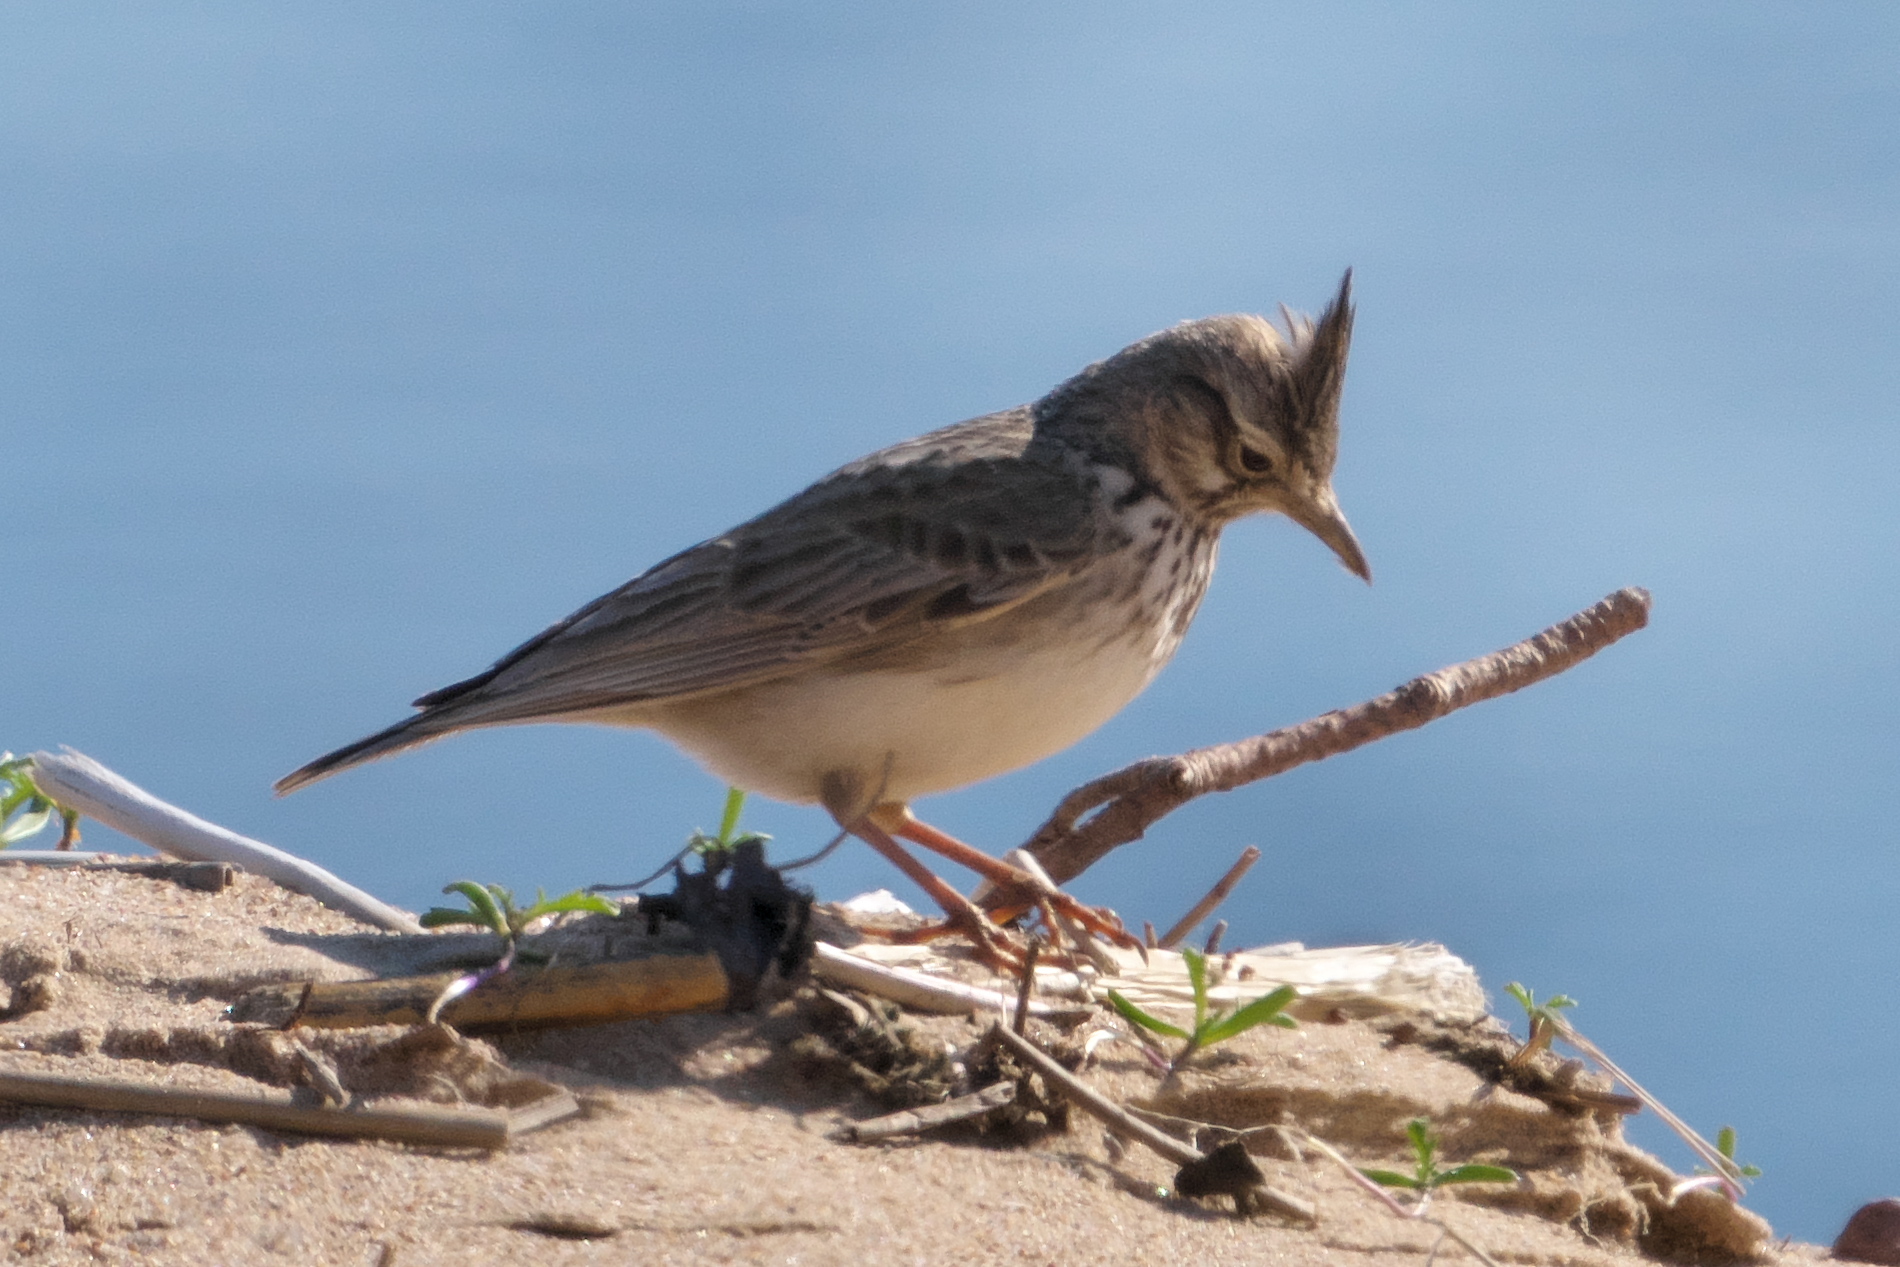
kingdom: Animalia
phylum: Chordata
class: Aves
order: Passeriformes
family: Alaudidae
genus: Galerida
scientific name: Galerida cristata
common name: Crested lark
